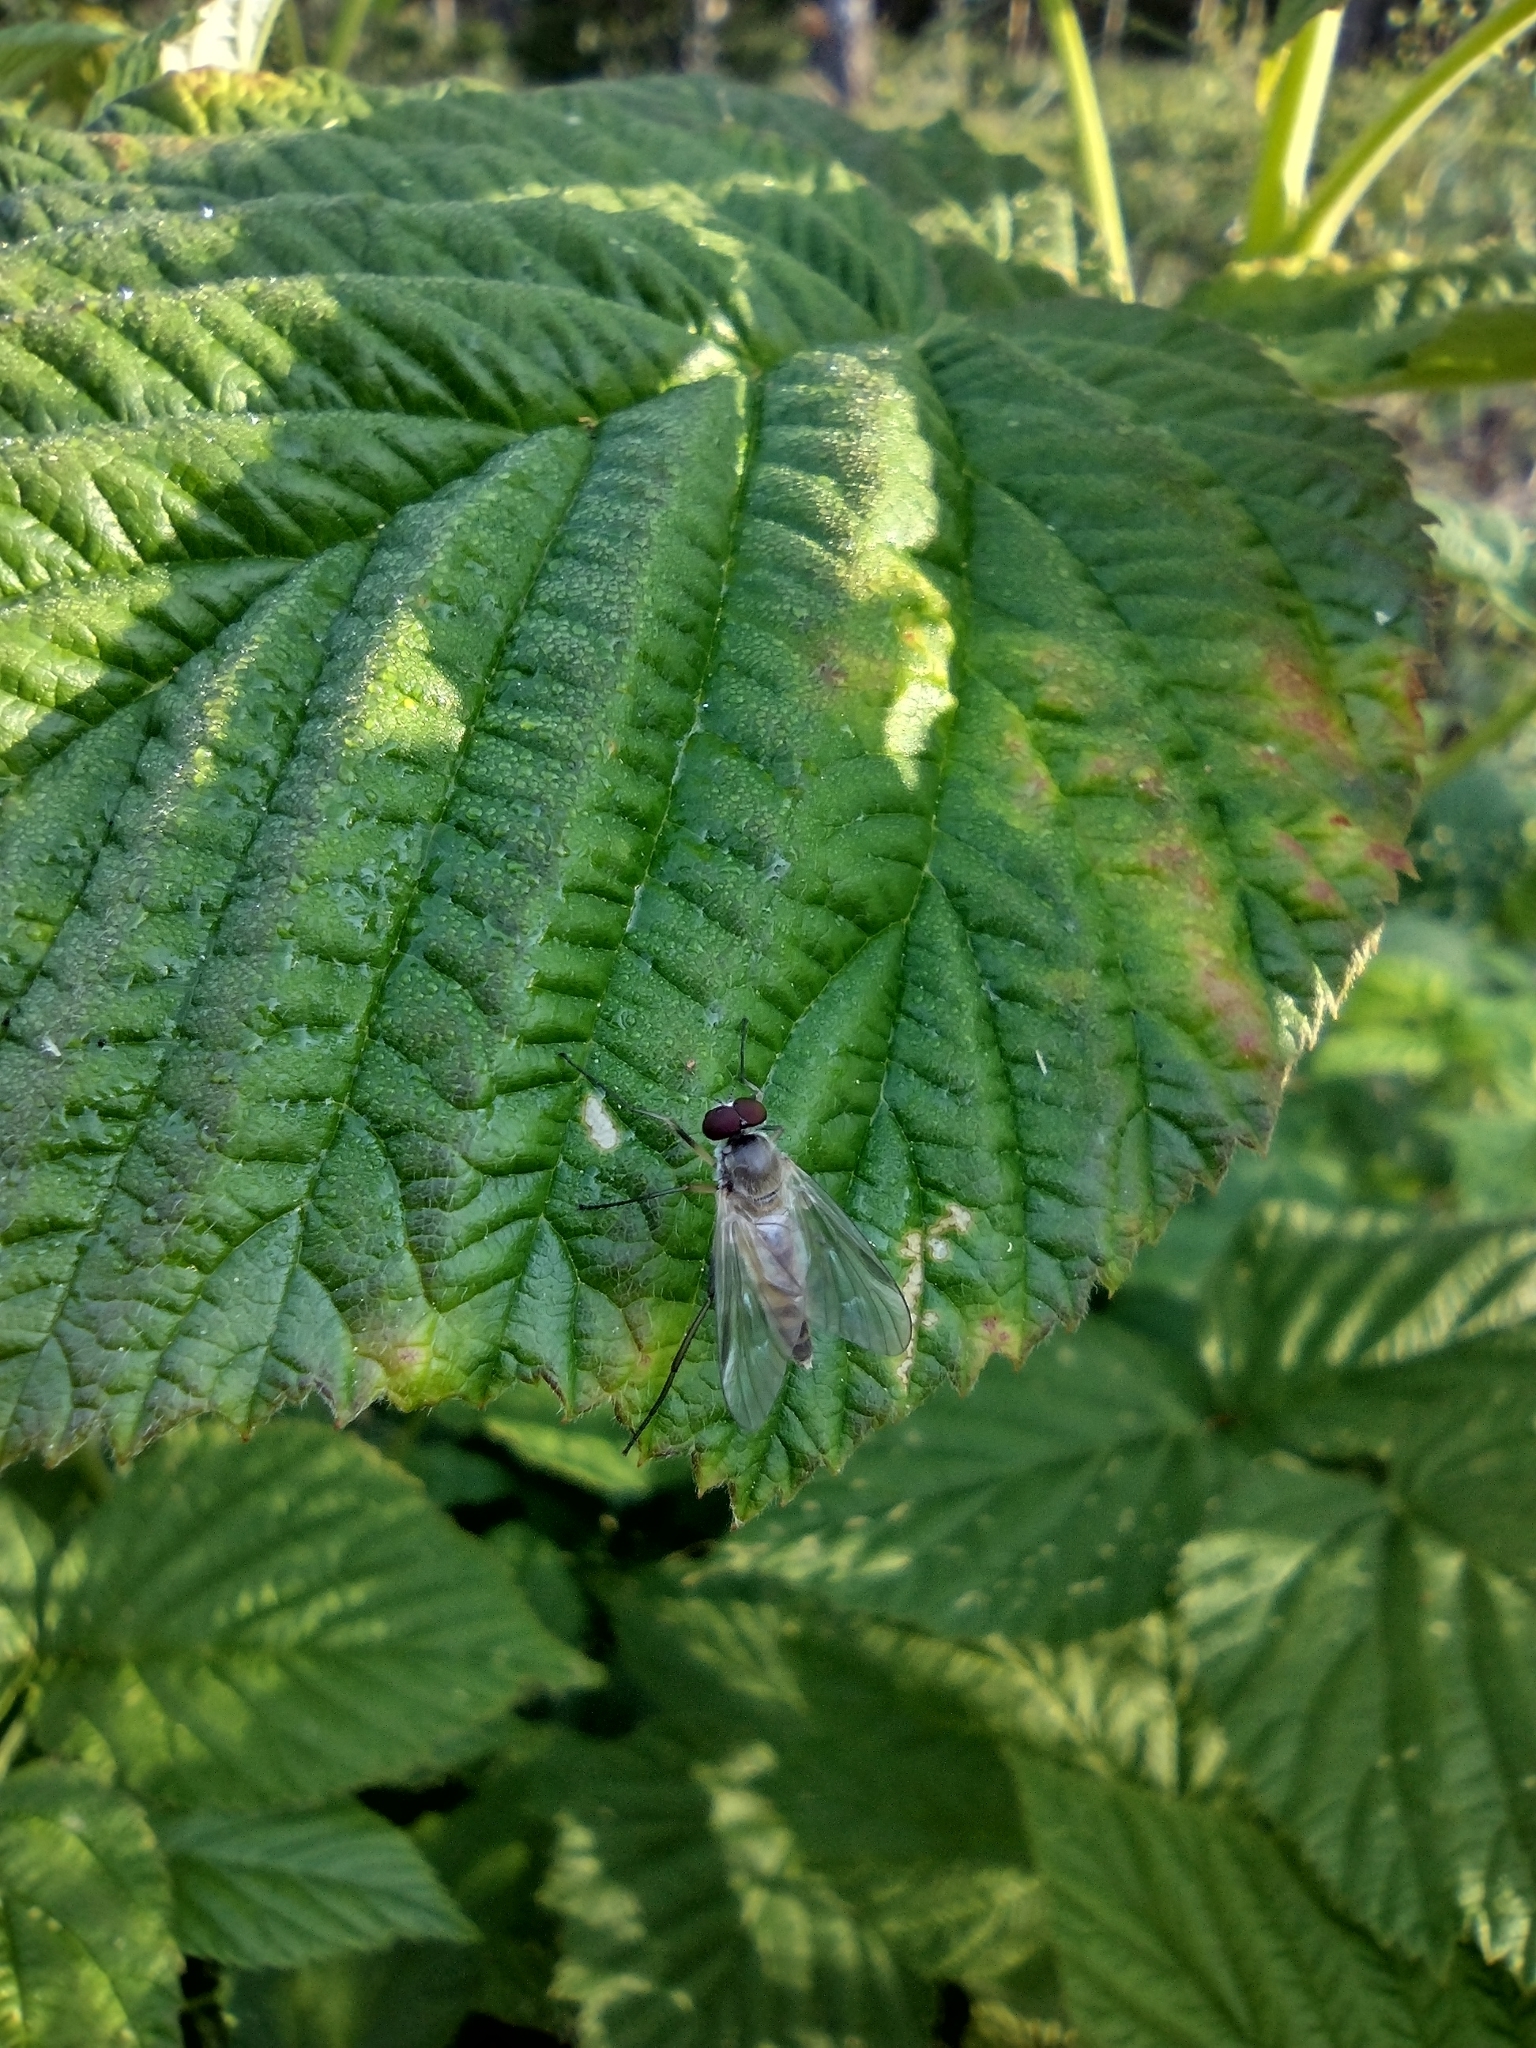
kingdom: Animalia
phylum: Arthropoda
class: Insecta
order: Diptera
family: Rhagionidae
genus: Rhagio
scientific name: Rhagio lineola
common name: Small fleck-winged snipefly
